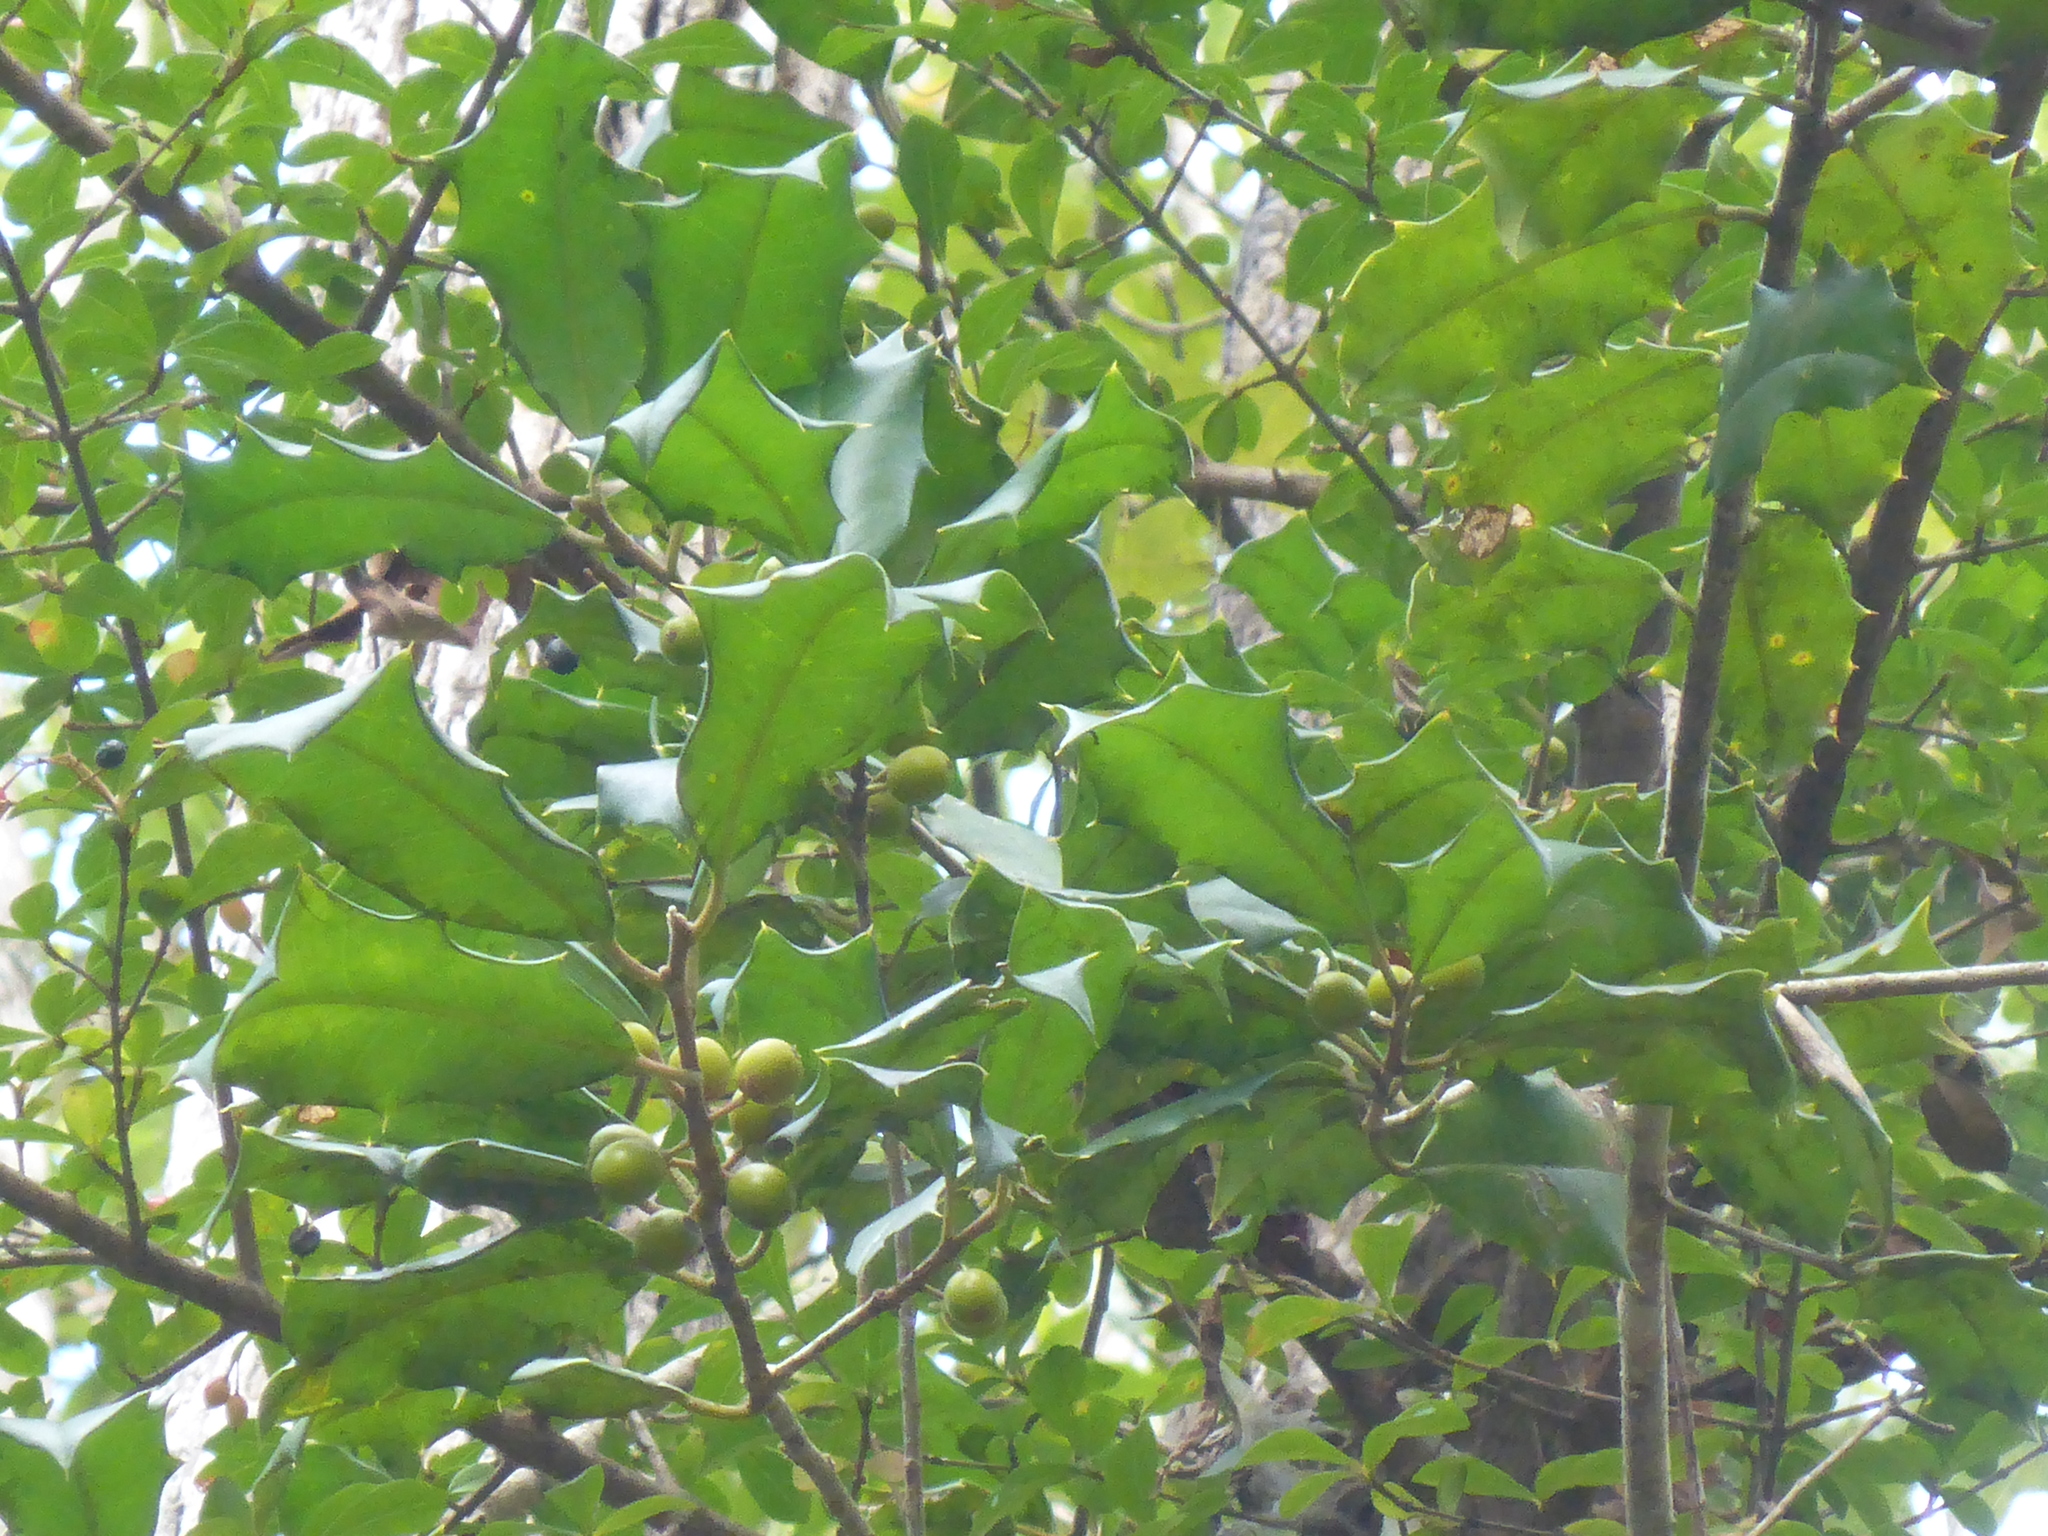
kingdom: Plantae
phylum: Tracheophyta
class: Magnoliopsida
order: Aquifoliales
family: Aquifoliaceae
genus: Ilex
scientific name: Ilex opaca
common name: American holly
